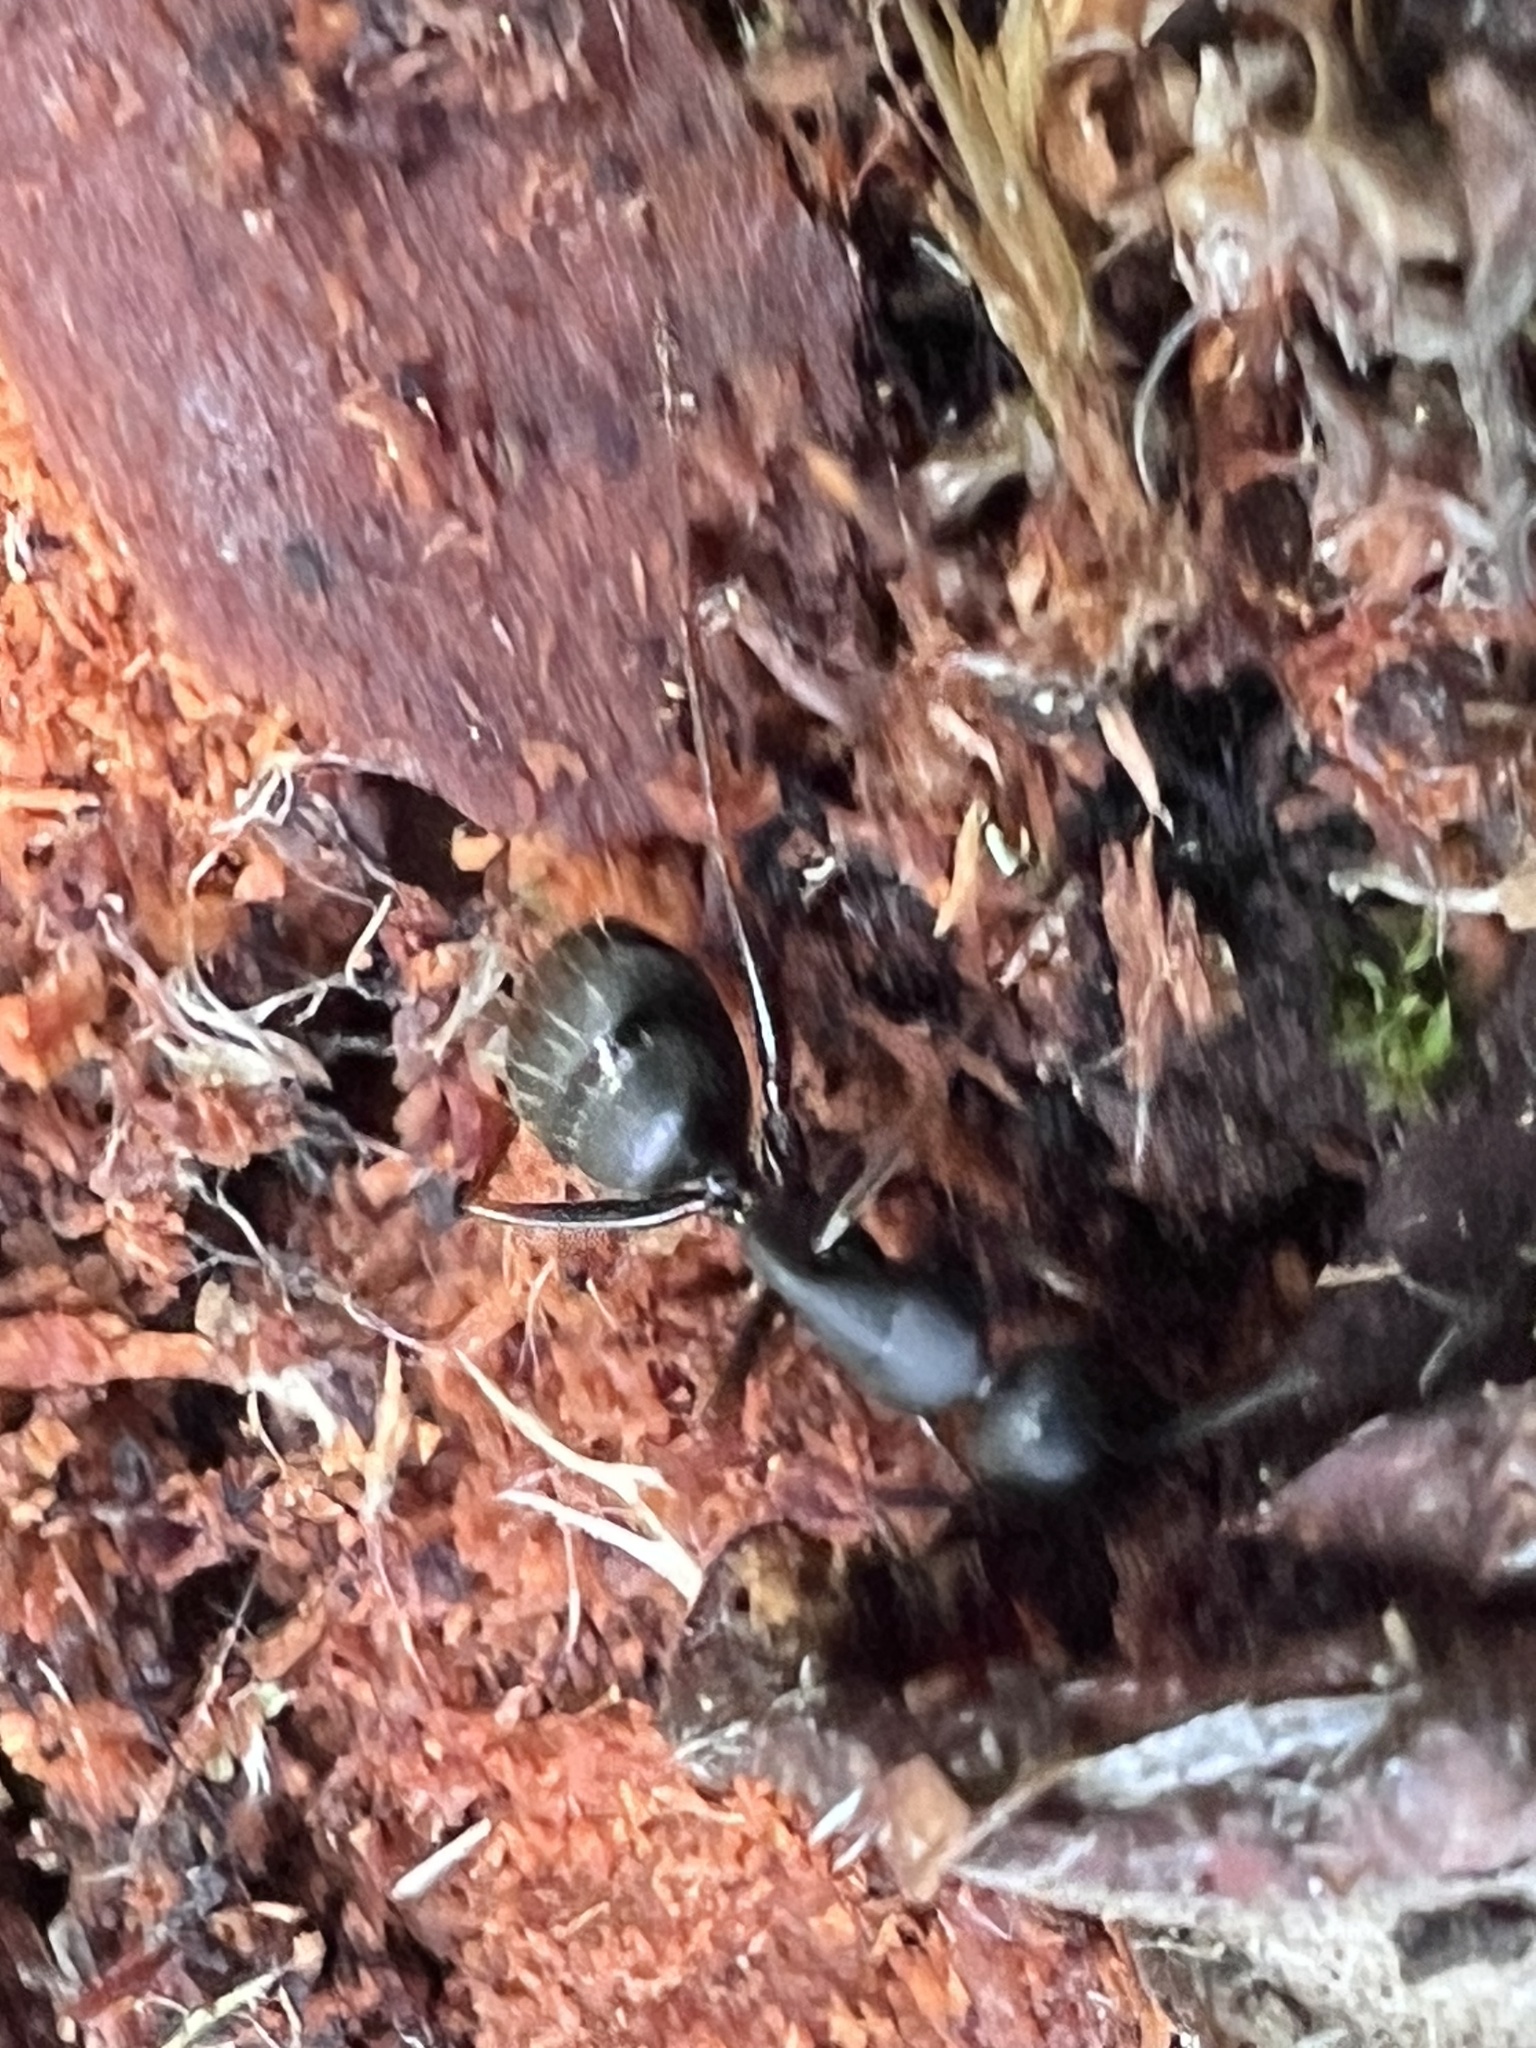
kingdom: Animalia
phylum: Arthropoda
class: Insecta
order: Hymenoptera
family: Formicidae
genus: Camponotus
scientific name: Camponotus modoc
